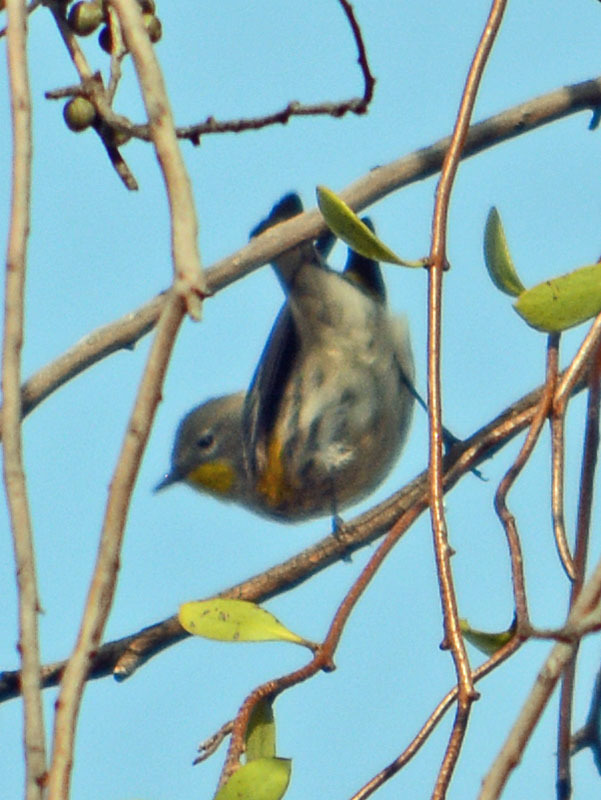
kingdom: Animalia
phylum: Chordata
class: Aves
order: Passeriformes
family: Parulidae
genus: Setophaga
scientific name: Setophaga auduboni
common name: Audubon's warbler
